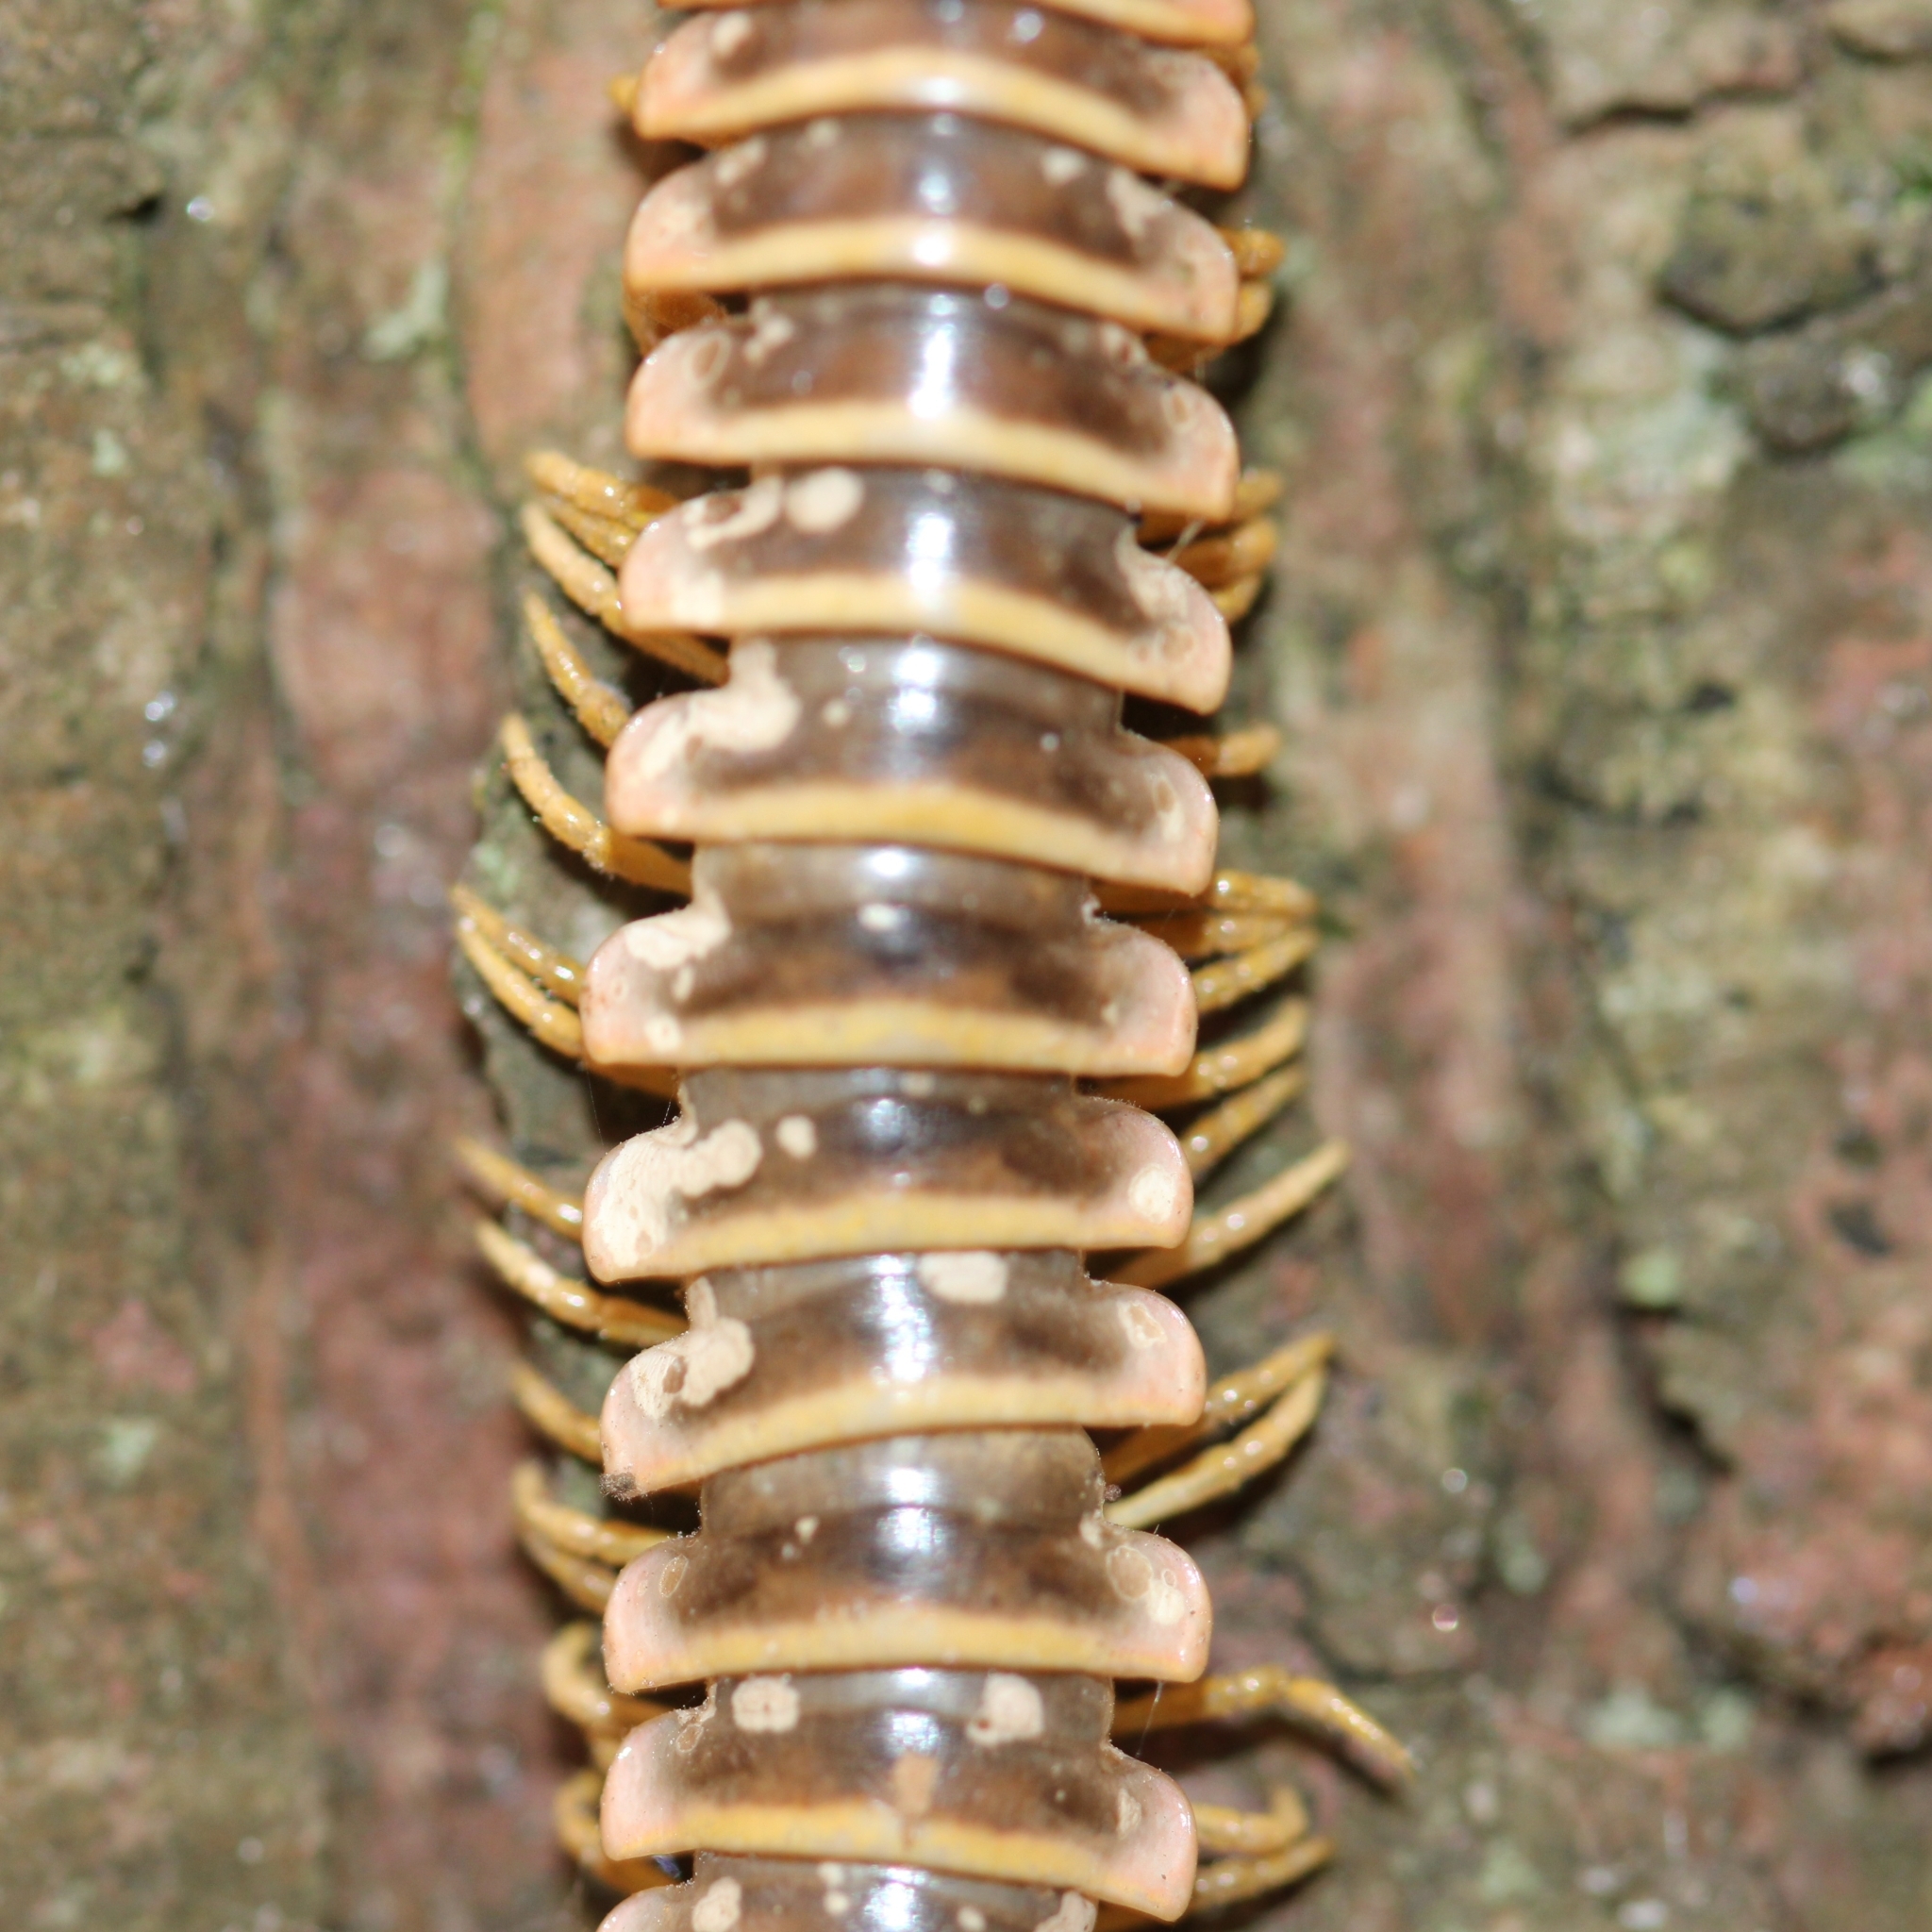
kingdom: Fungi
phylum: Entomophthoromycota
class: Entomophthoromycetes
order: Entomophthorales
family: Entomophthoraceae
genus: Arthrophaga
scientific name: Arthrophaga myriapodina
